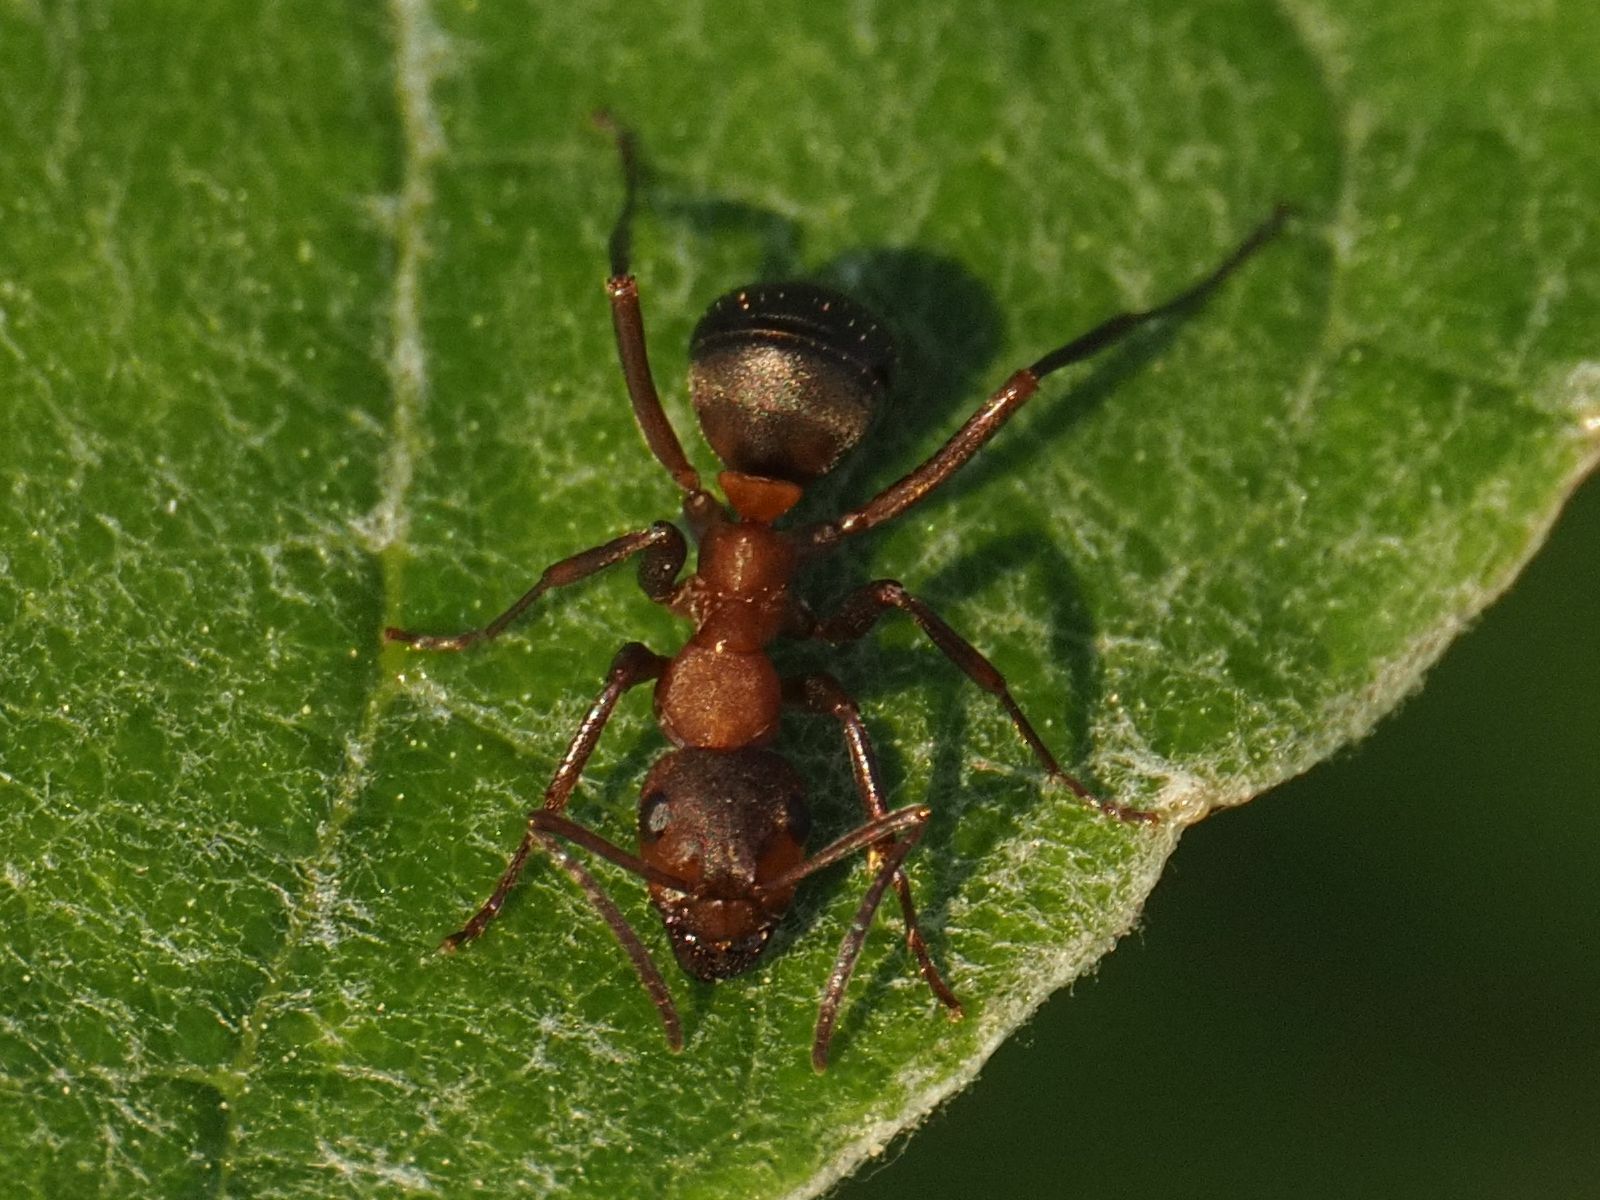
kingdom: Animalia
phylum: Arthropoda
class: Insecta
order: Hymenoptera
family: Formicidae
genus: Formica
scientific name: Formica sanguinea
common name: Blood-red ant
